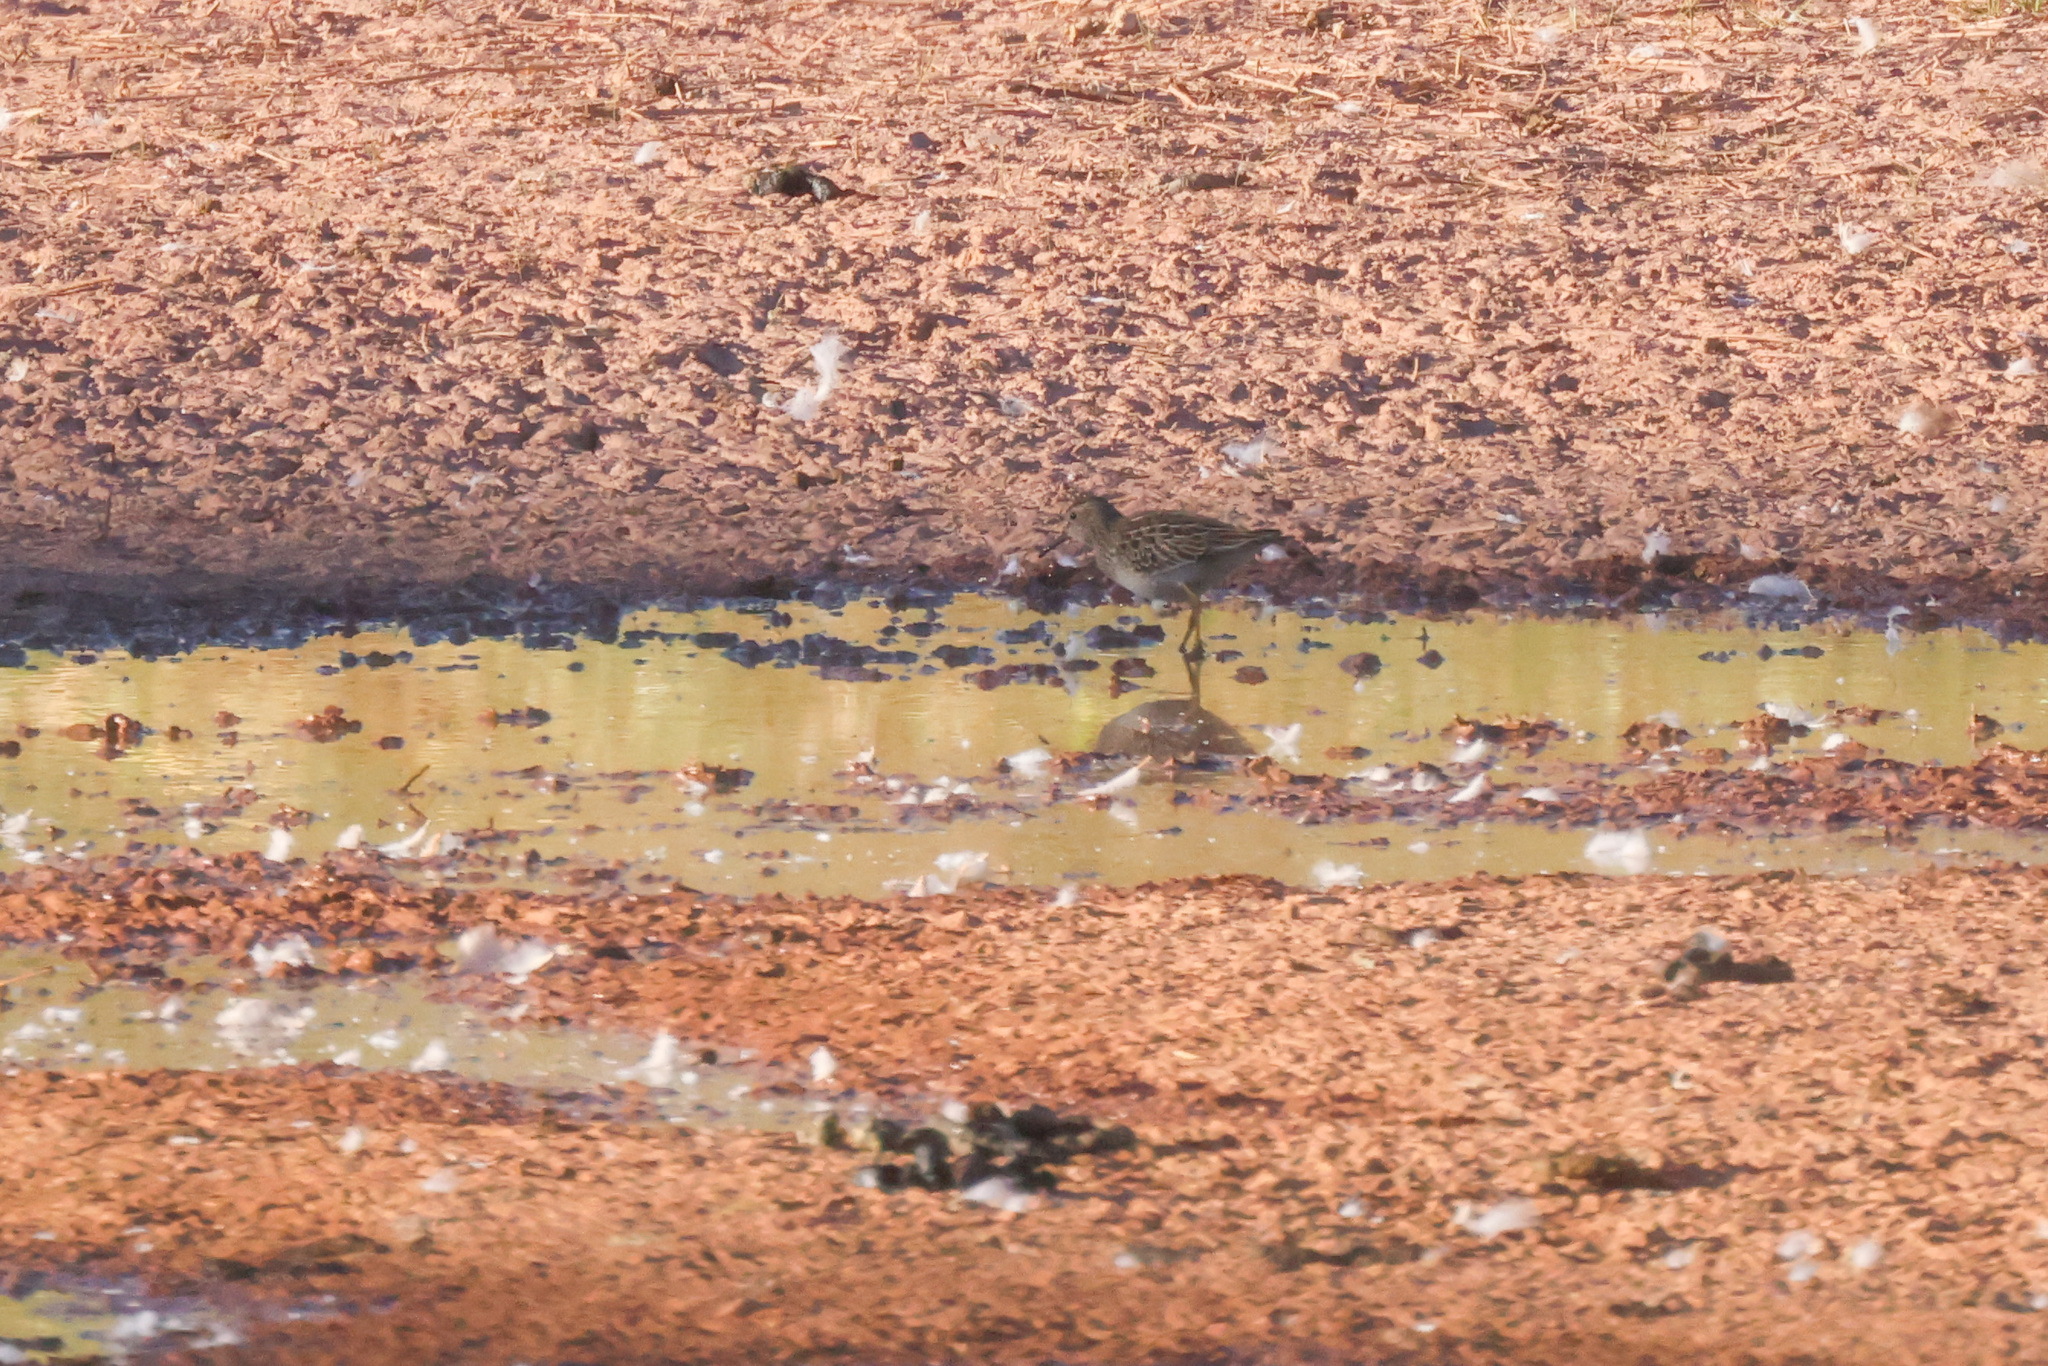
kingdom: Animalia
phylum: Chordata
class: Aves
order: Charadriiformes
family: Scolopacidae
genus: Calidris
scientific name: Calidris melanotos
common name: Pectoral sandpiper
